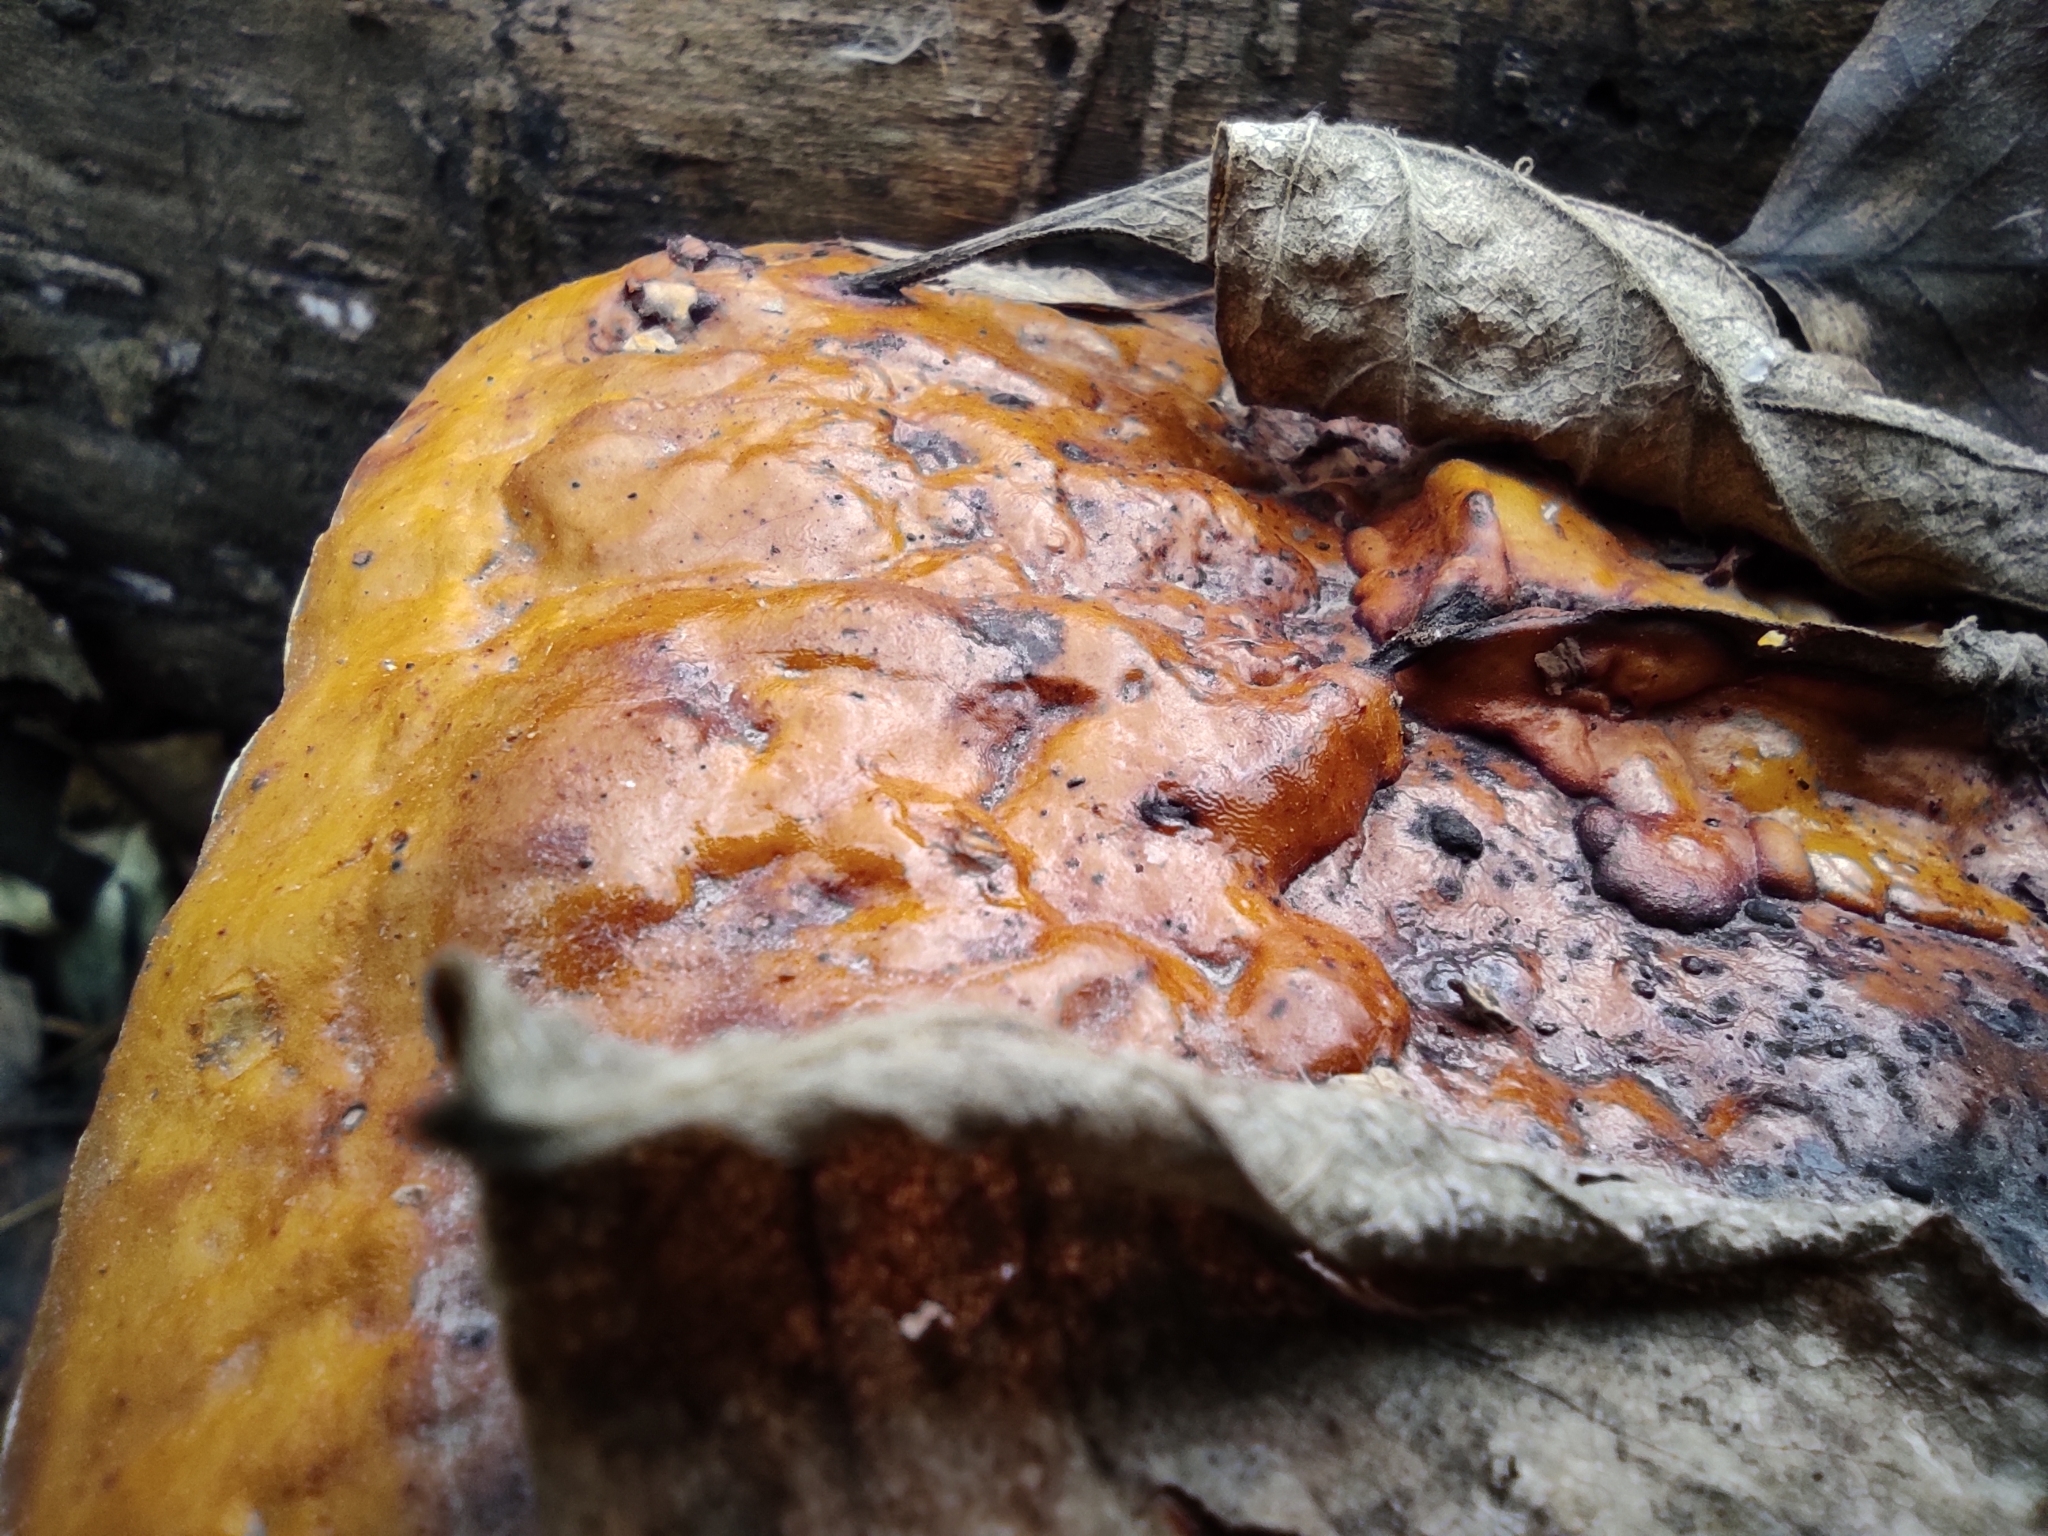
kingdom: Fungi
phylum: Basidiomycota
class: Agaricomycetes
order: Polyporales
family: Fomitopsidaceae
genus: Fomitopsis
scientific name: Fomitopsis pinicola
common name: Red-belted bracket
